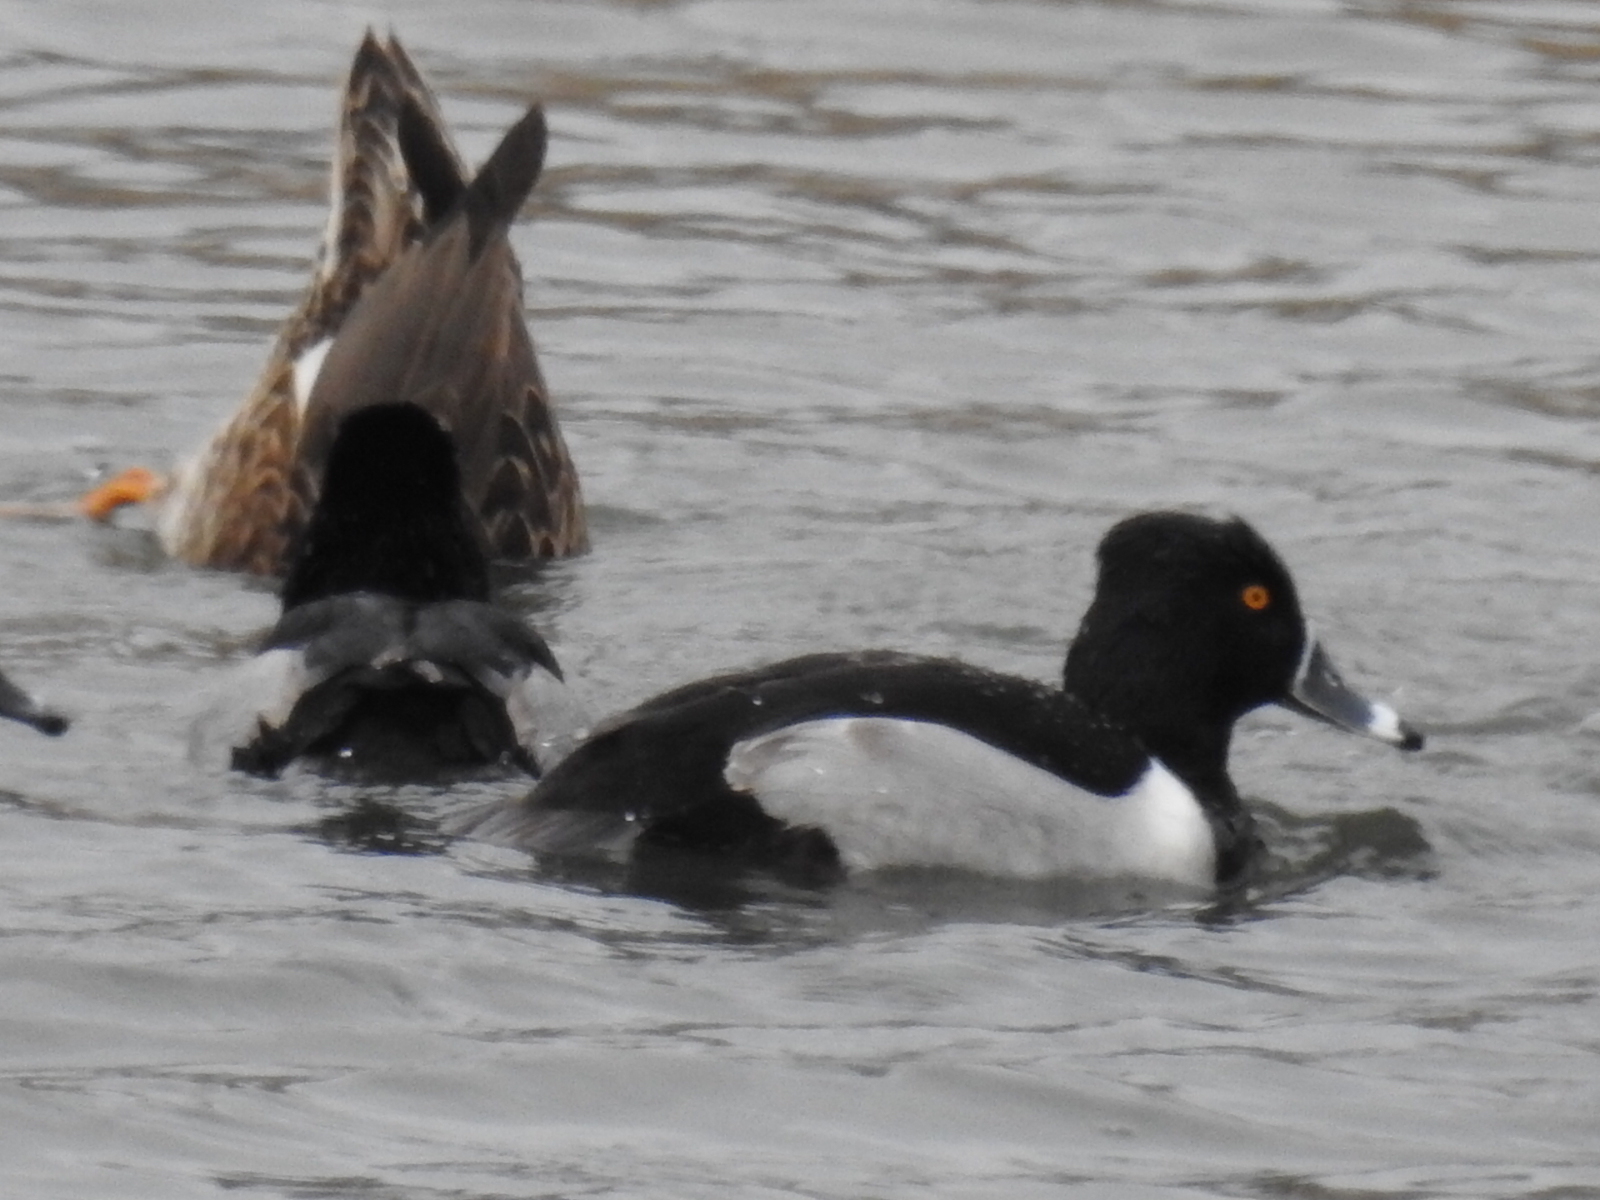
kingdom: Animalia
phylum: Chordata
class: Aves
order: Anseriformes
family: Anatidae
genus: Aythya
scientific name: Aythya collaris
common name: Ring-necked duck
